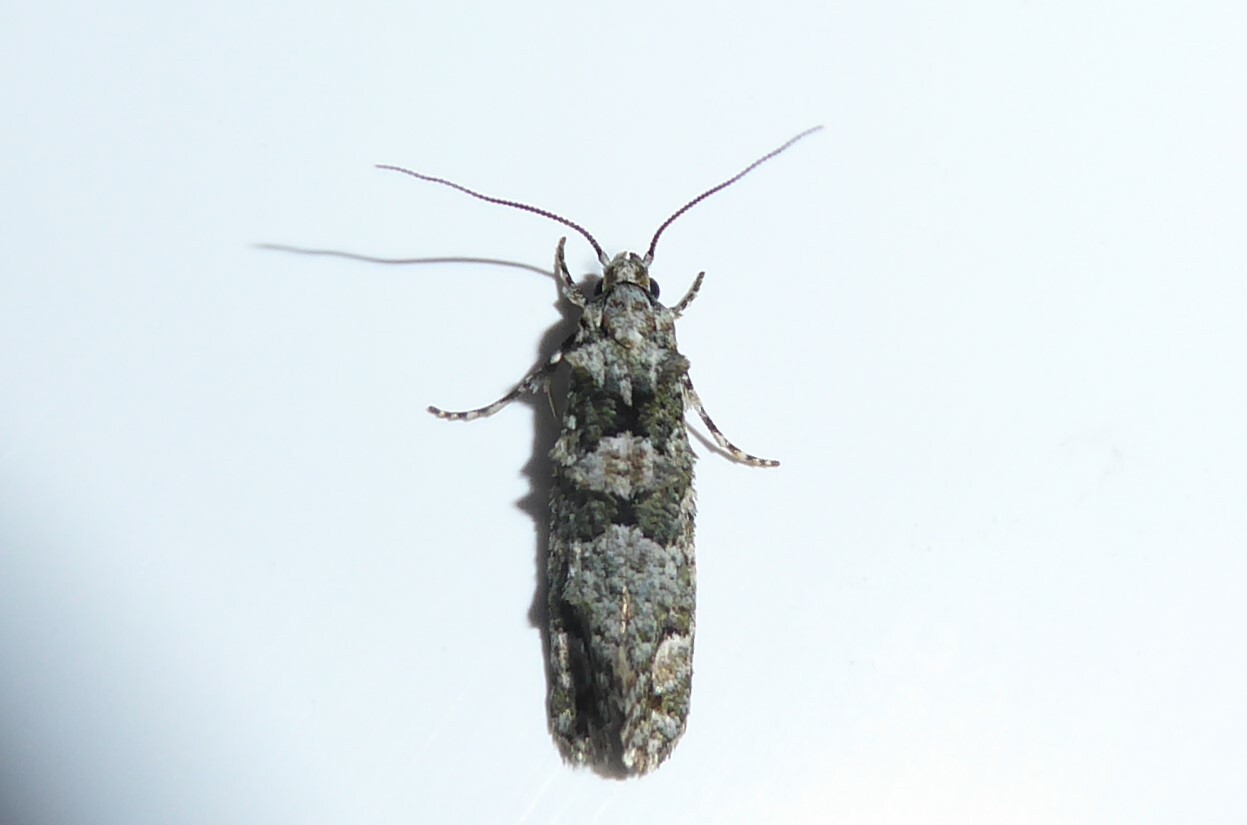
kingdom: Animalia
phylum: Arthropoda
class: Insecta
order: Lepidoptera
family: Tineidae
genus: Lysiphragma
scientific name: Lysiphragma howesii
